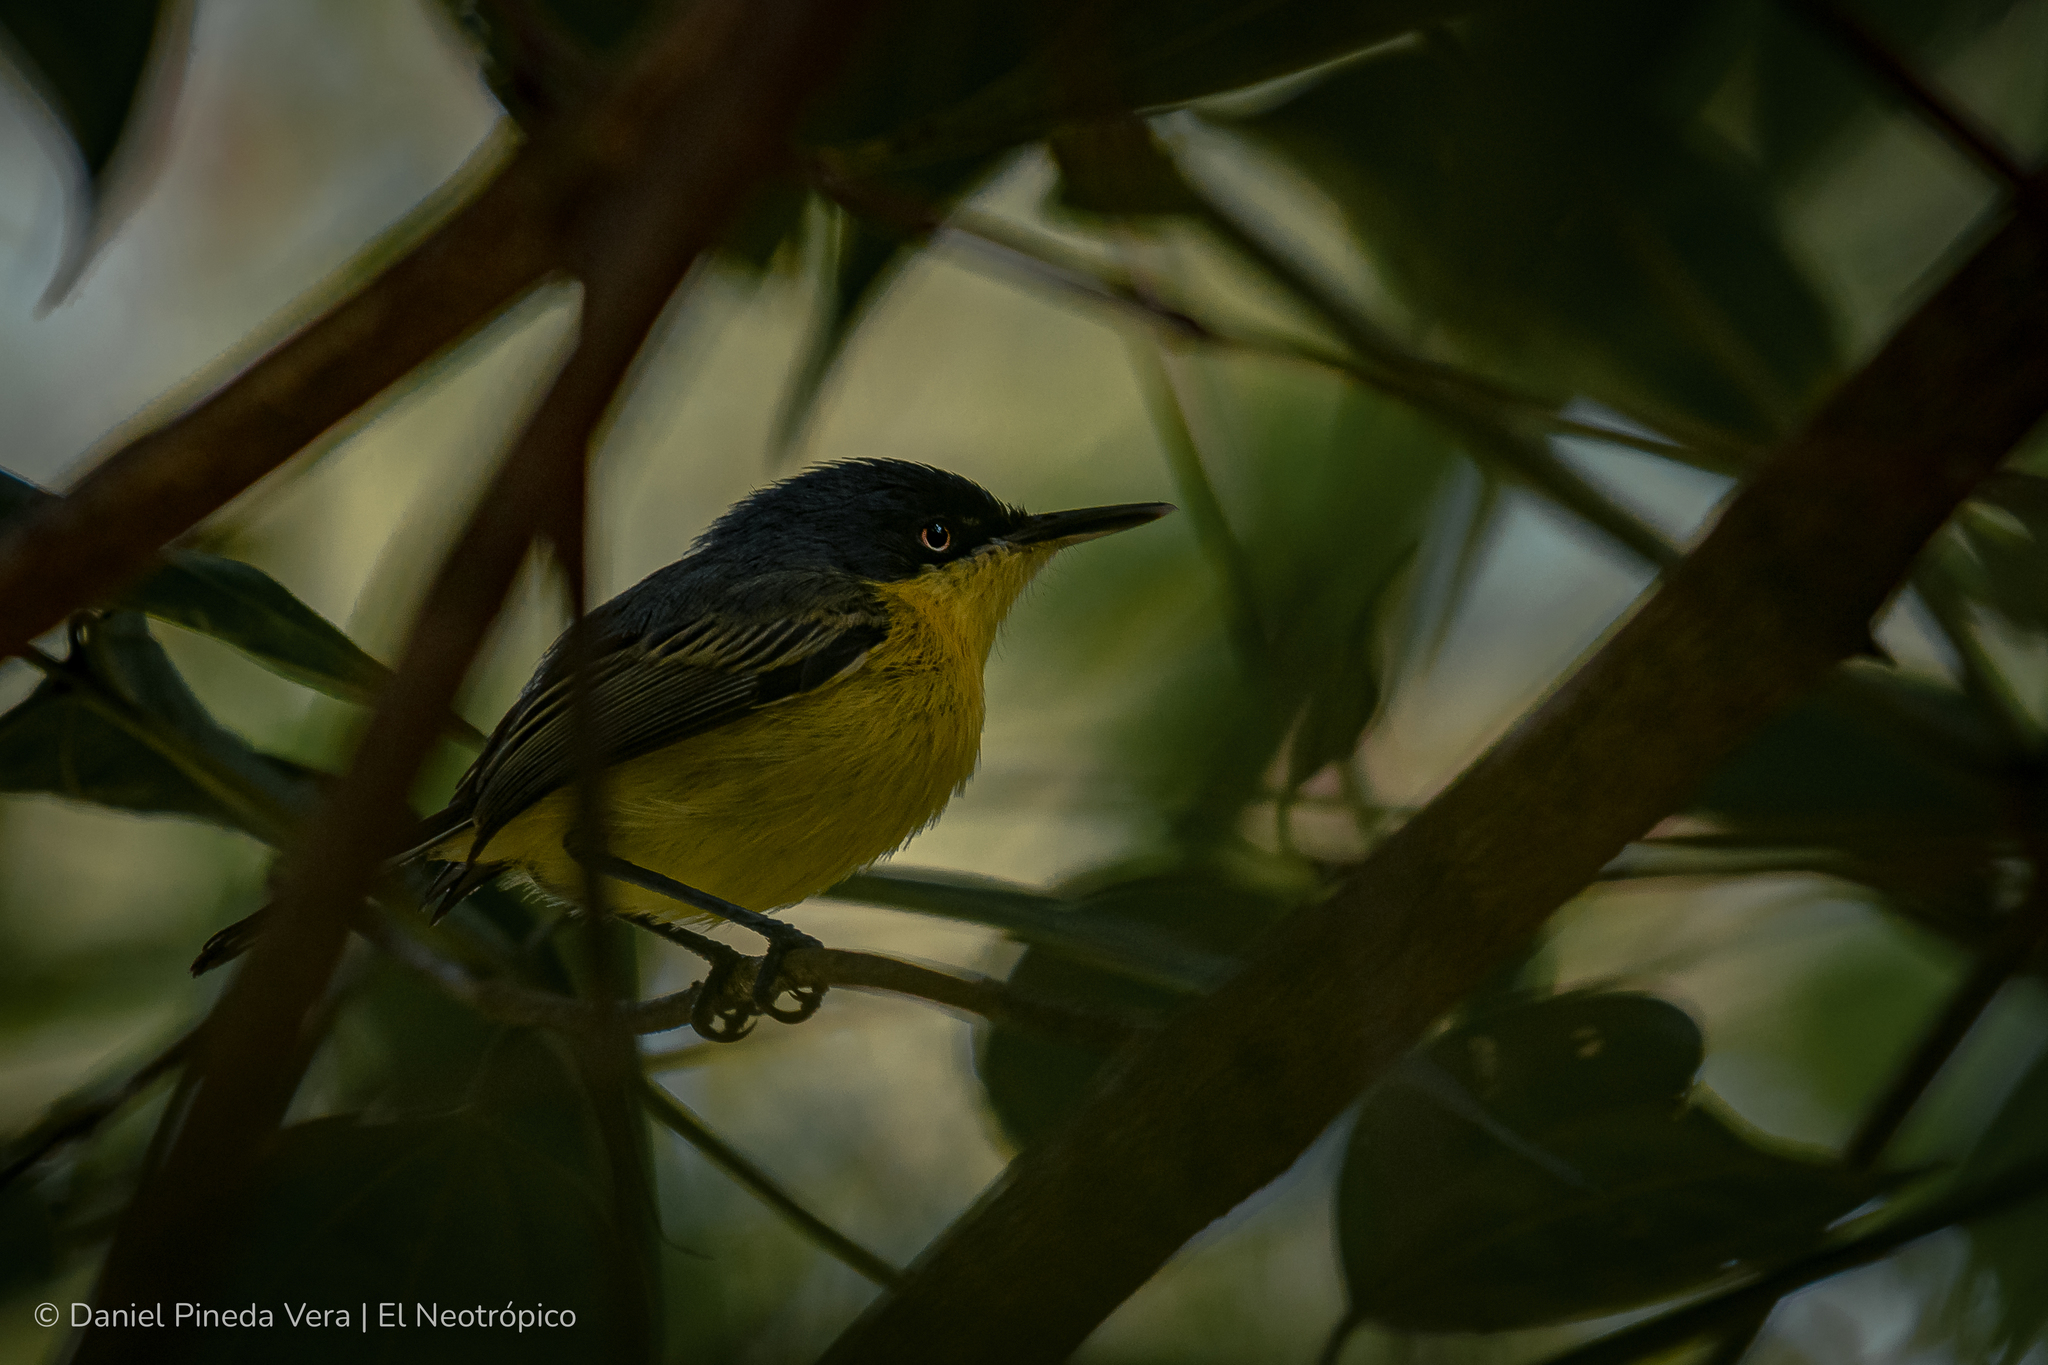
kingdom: Animalia
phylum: Chordata
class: Aves
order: Passeriformes
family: Tyrannidae
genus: Todirostrum
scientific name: Todirostrum cinereum
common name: Common tody-flycatcher
